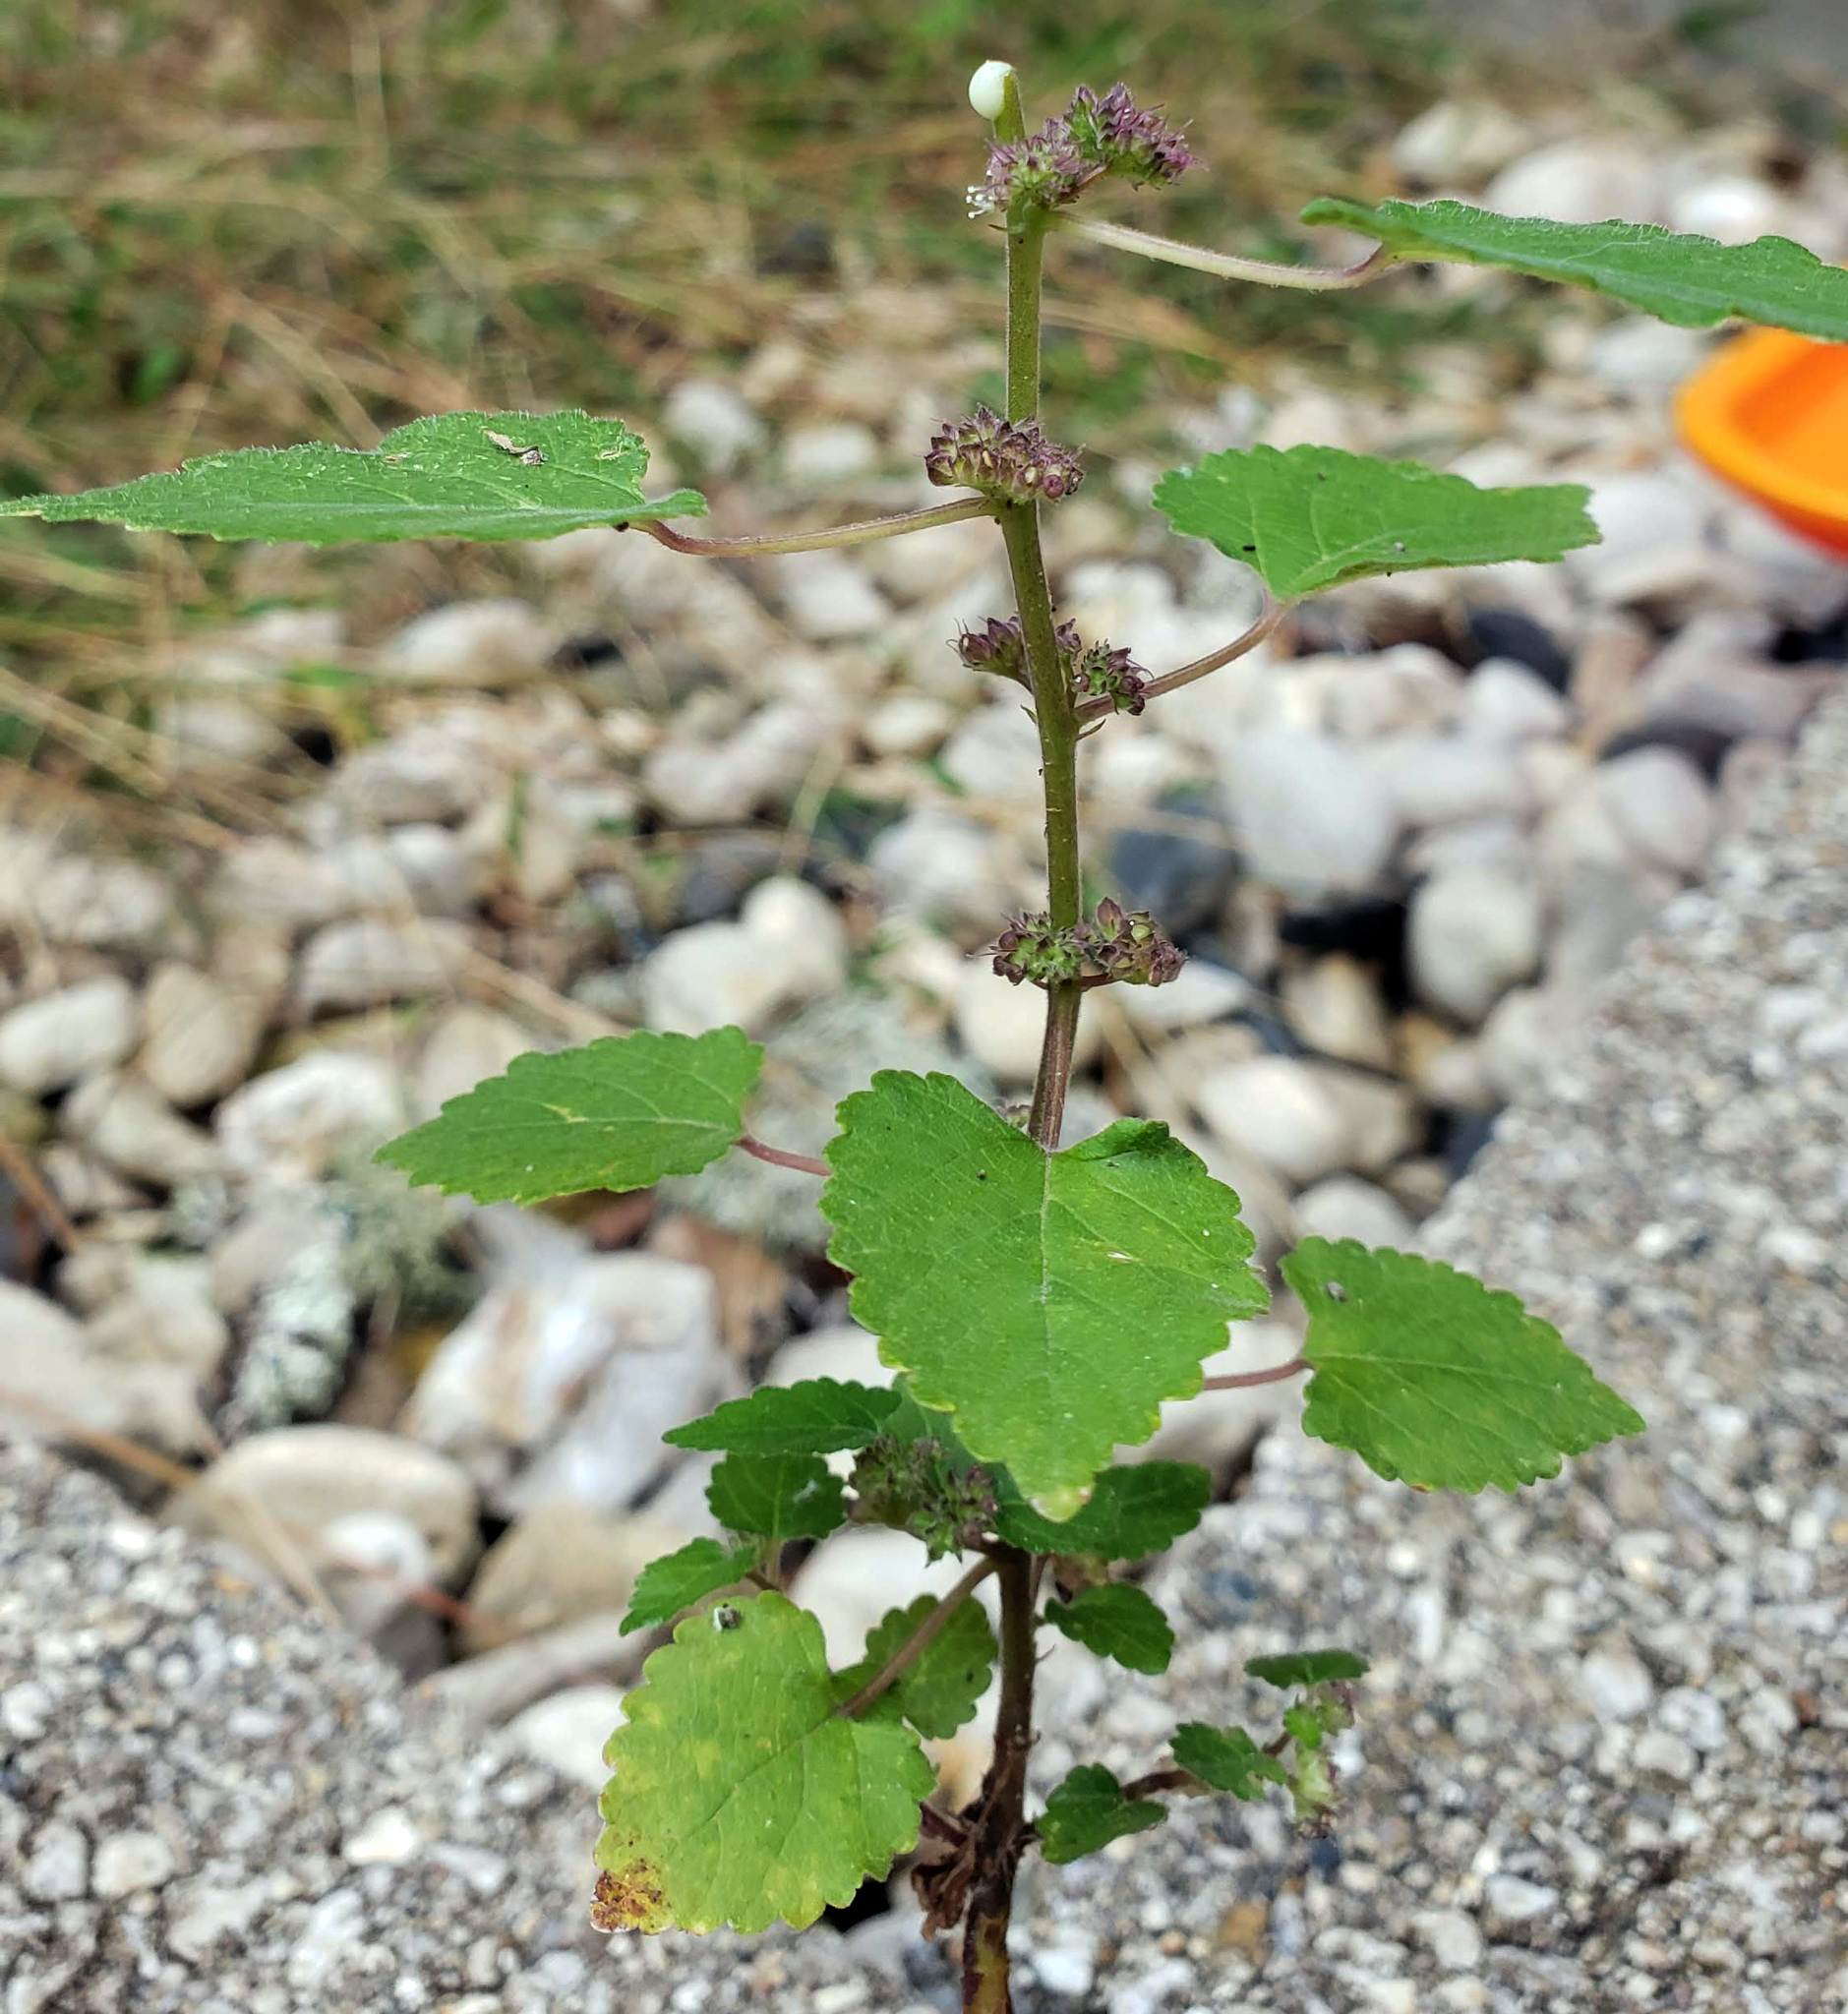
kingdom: Plantae
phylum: Tracheophyta
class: Magnoliopsida
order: Rosales
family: Moraceae
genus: Fatoua
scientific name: Fatoua villosa
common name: Hairy crabweed
